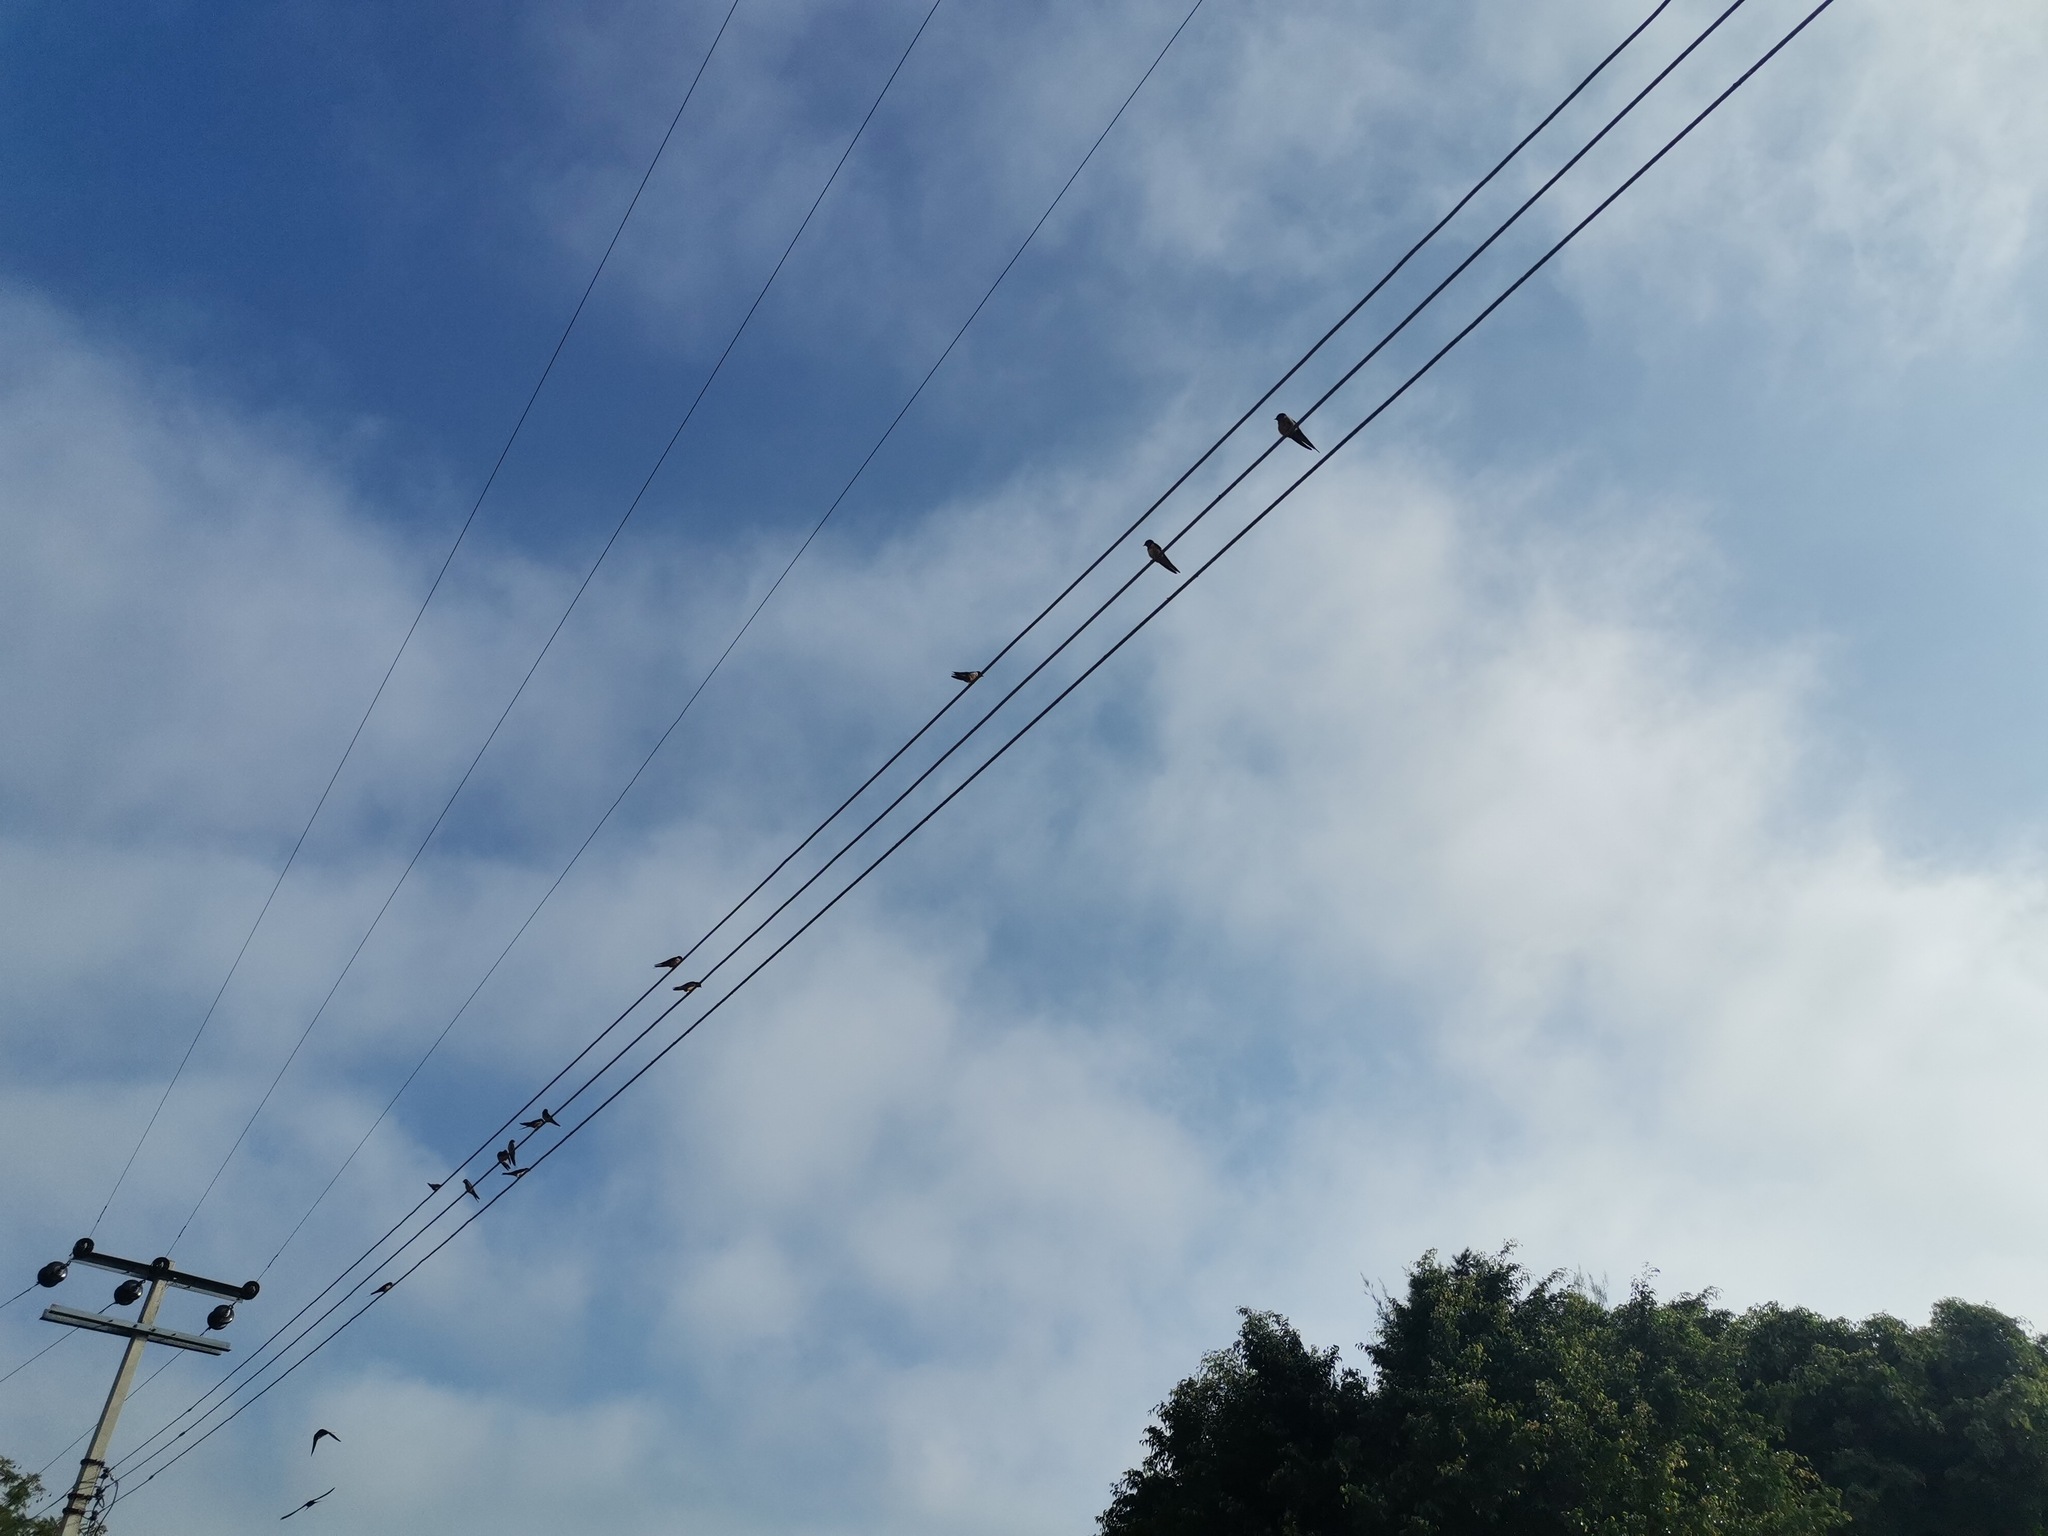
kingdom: Animalia
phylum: Chordata
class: Aves
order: Passeriformes
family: Hirundinidae
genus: Hirundo
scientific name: Hirundo rustica
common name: Barn swallow
